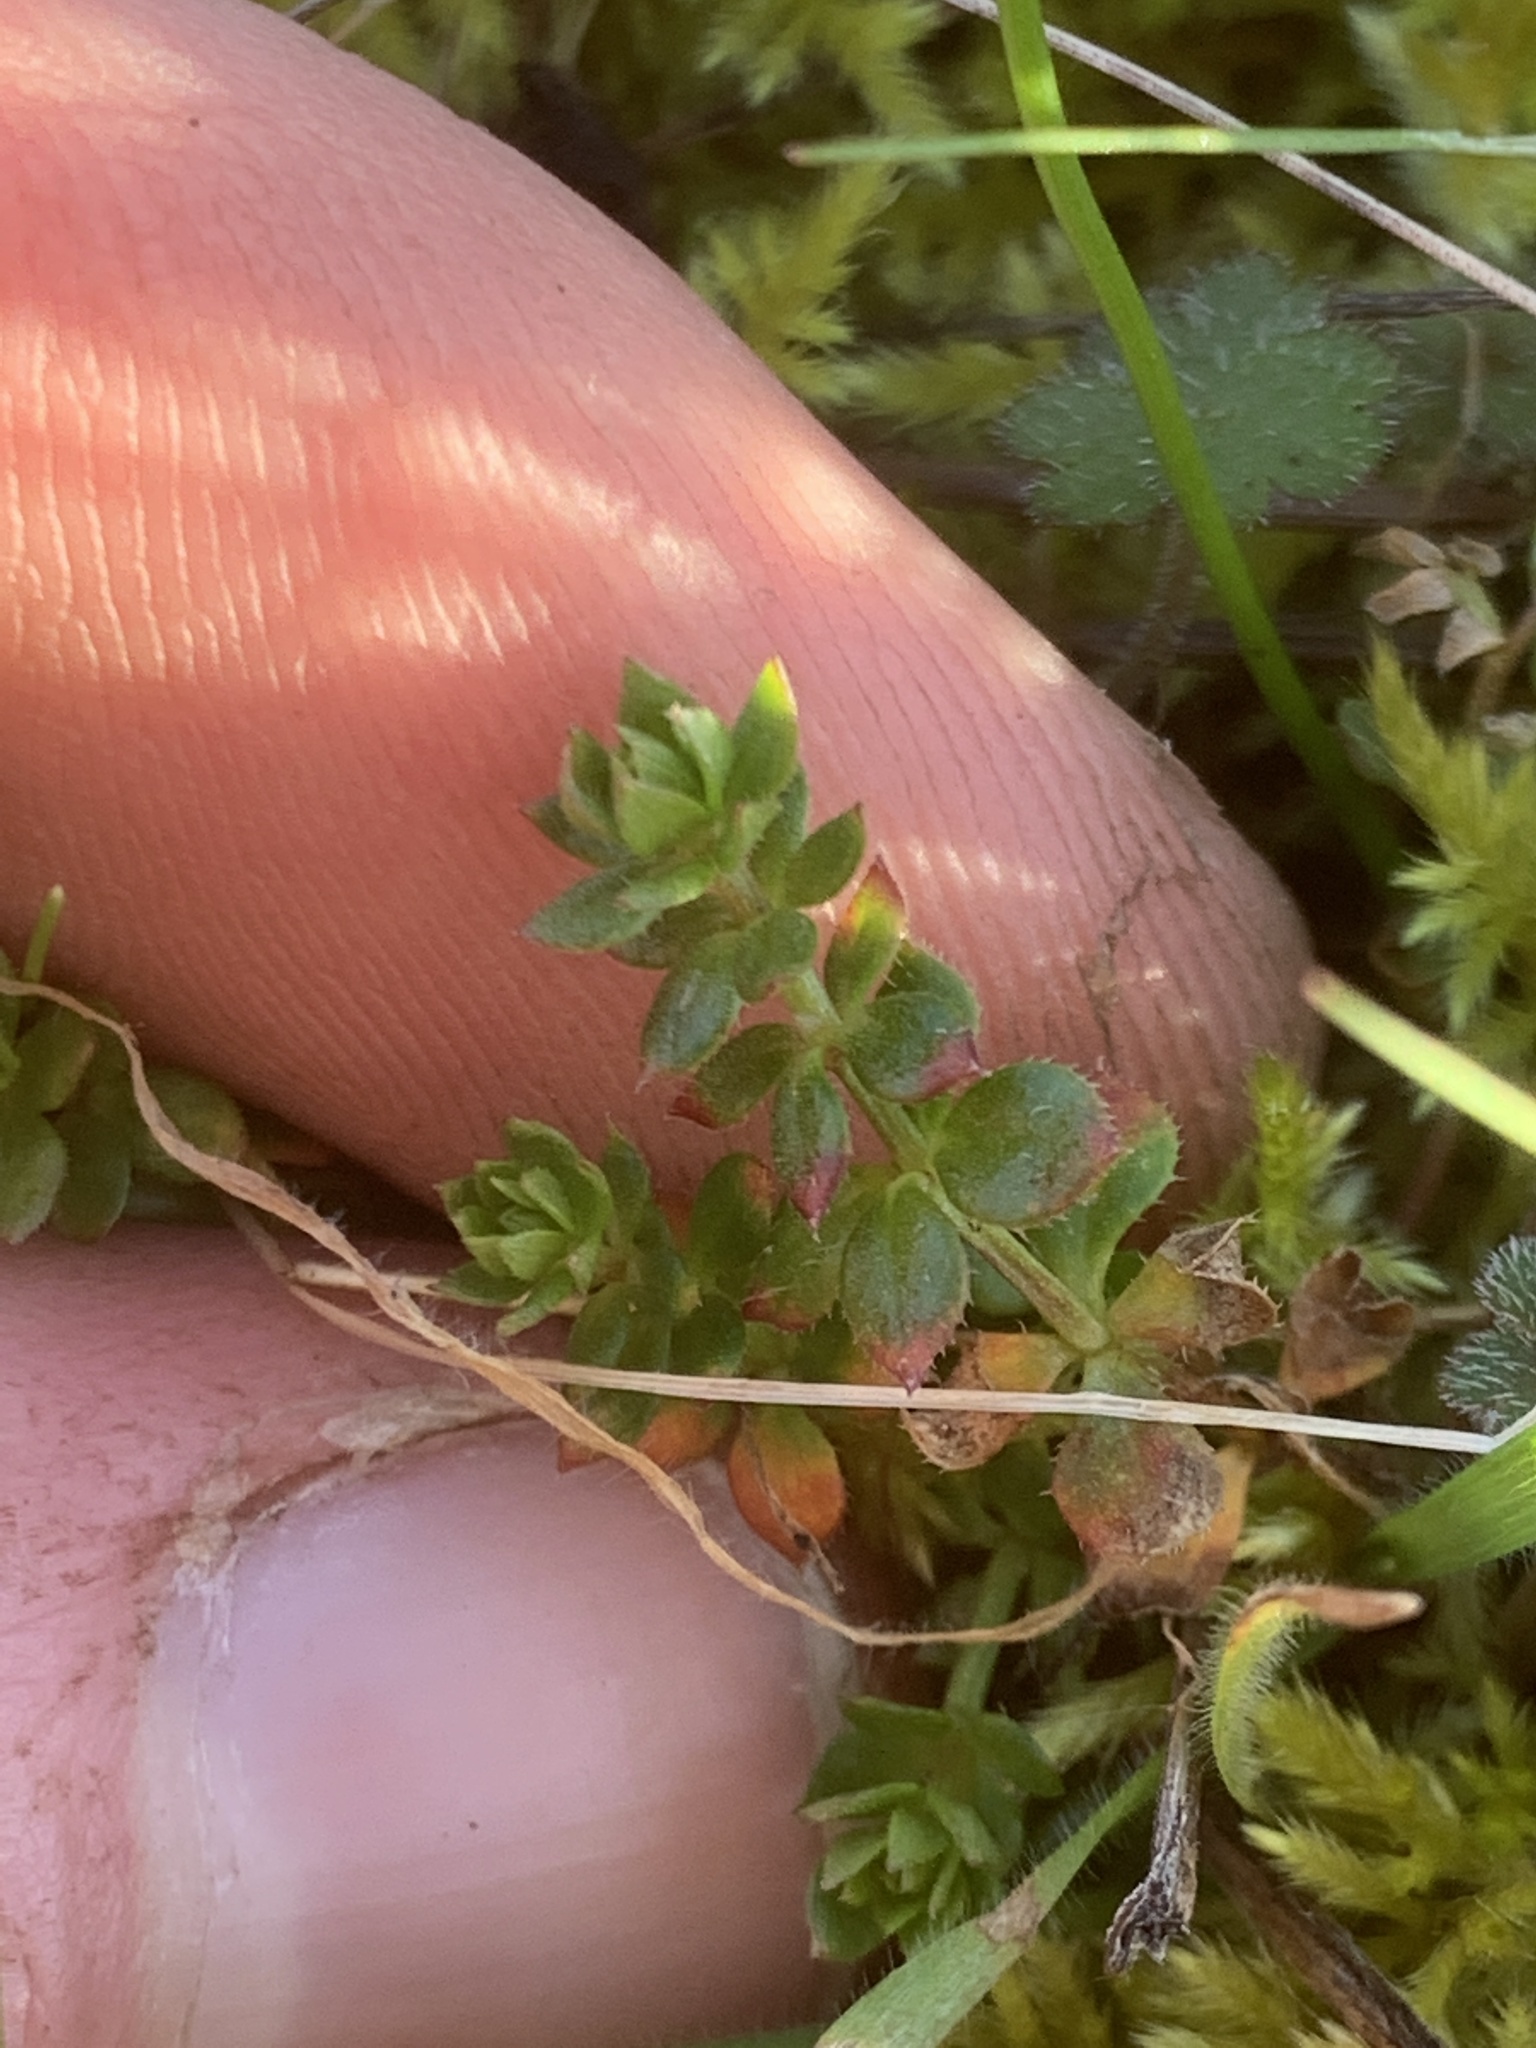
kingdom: Plantae
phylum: Tracheophyta
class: Magnoliopsida
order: Gentianales
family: Rubiaceae
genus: Sherardia
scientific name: Sherardia arvensis
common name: Field madder
